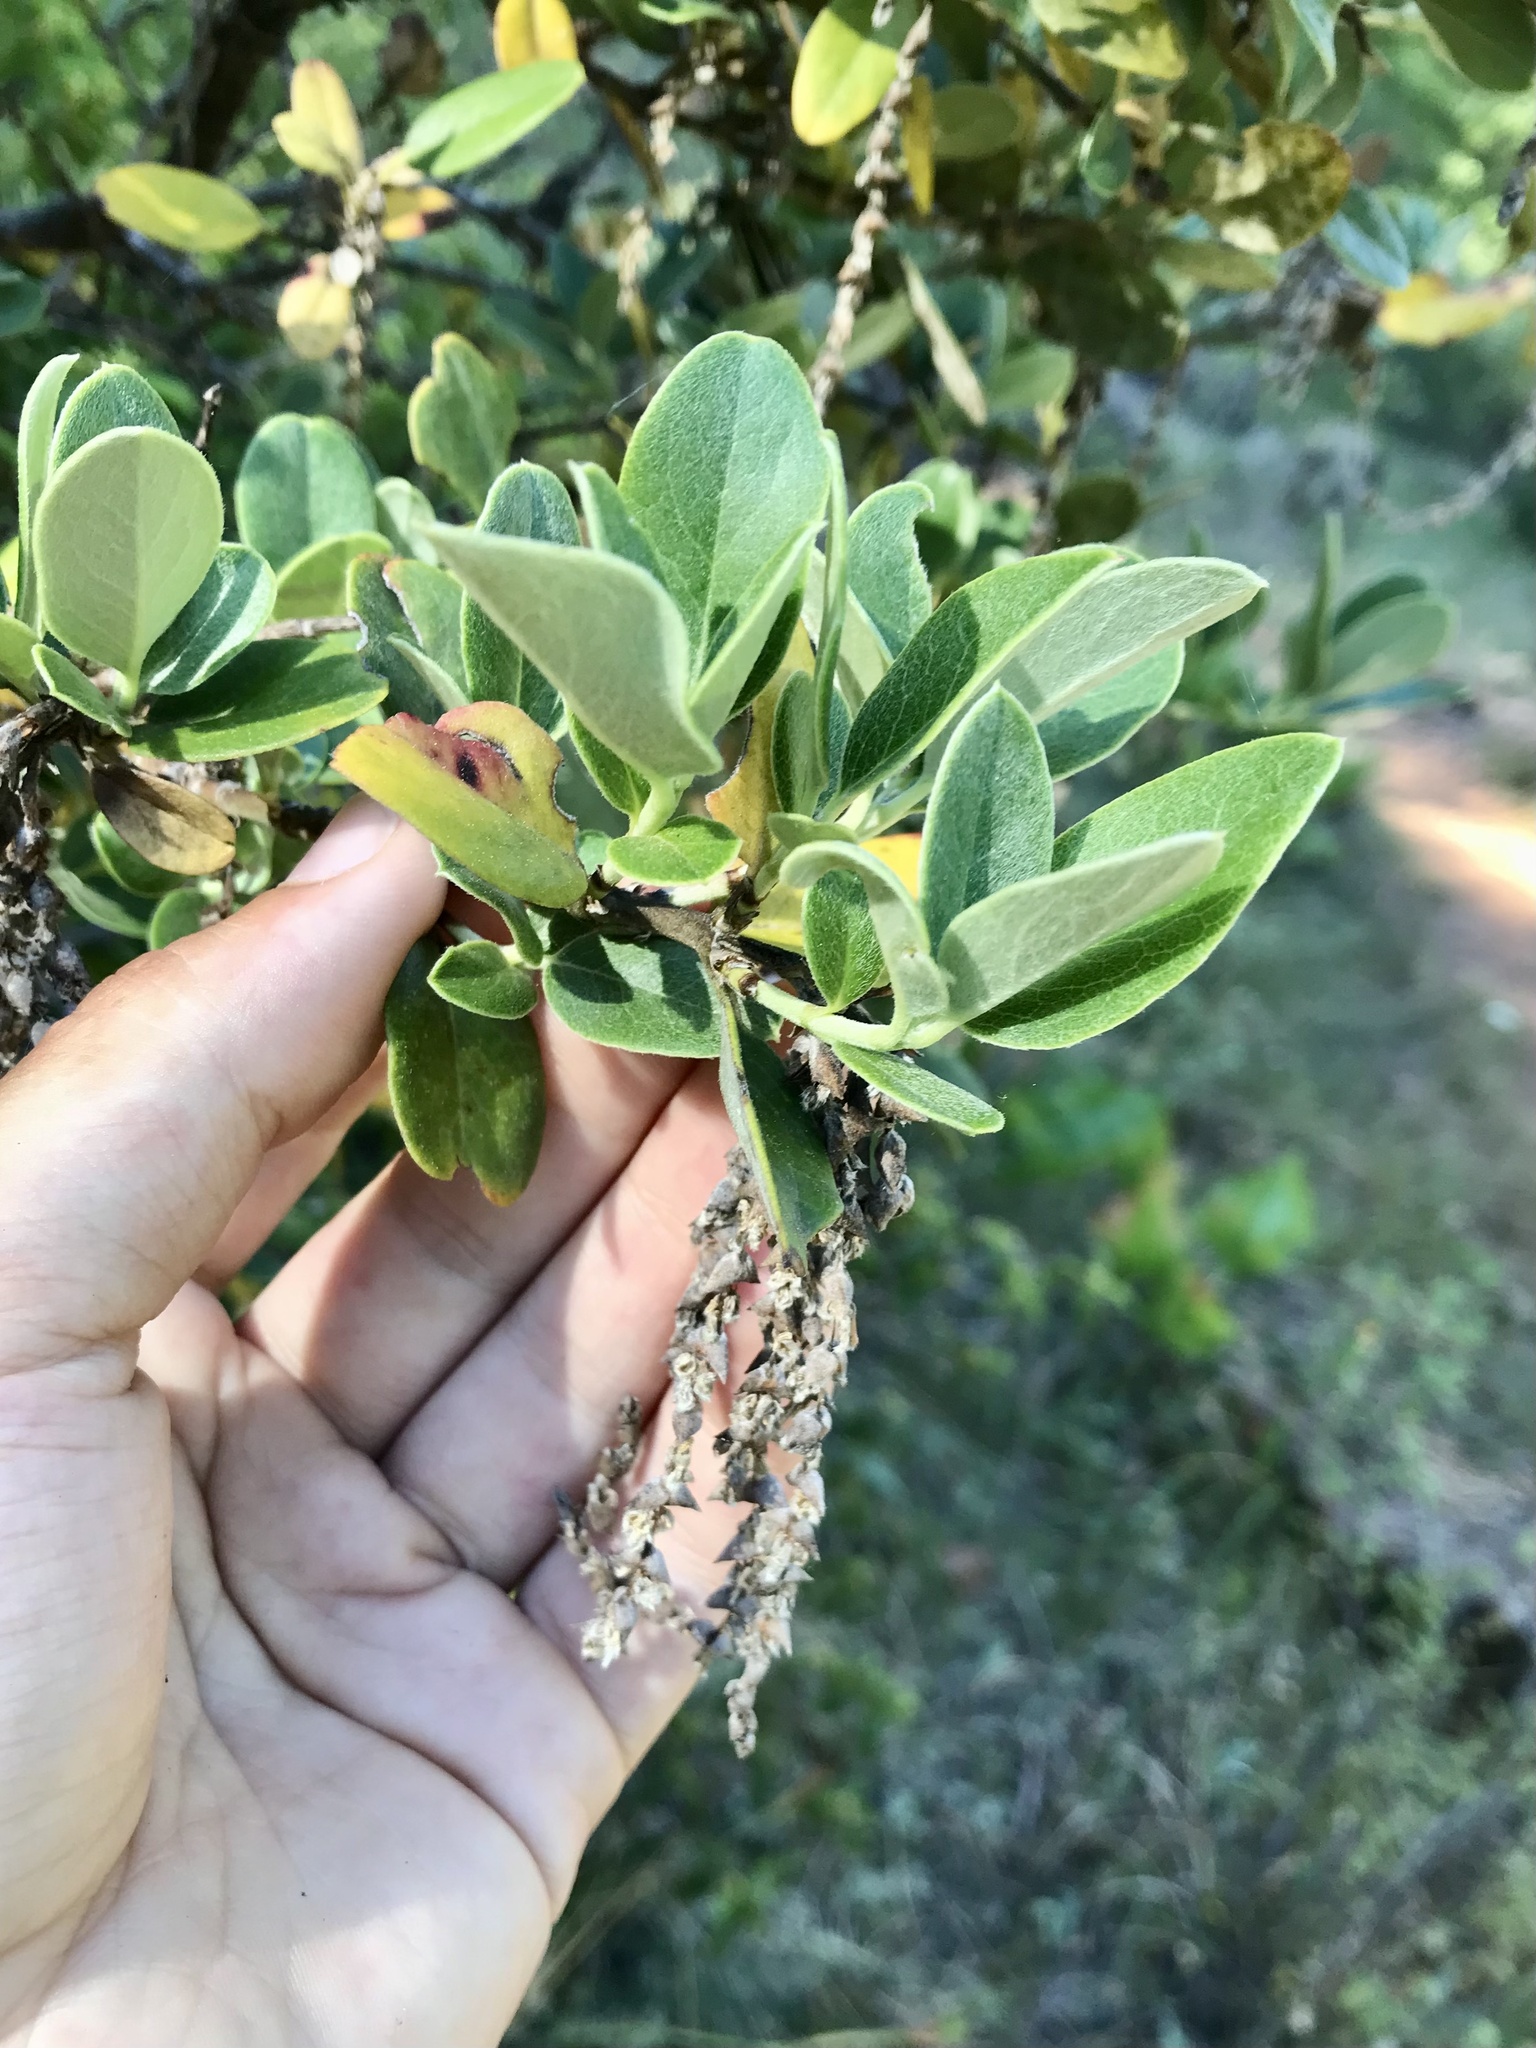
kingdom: Plantae
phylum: Tracheophyta
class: Magnoliopsida
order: Garryales
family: Garryaceae
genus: Garrya
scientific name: Garrya buxifolia
